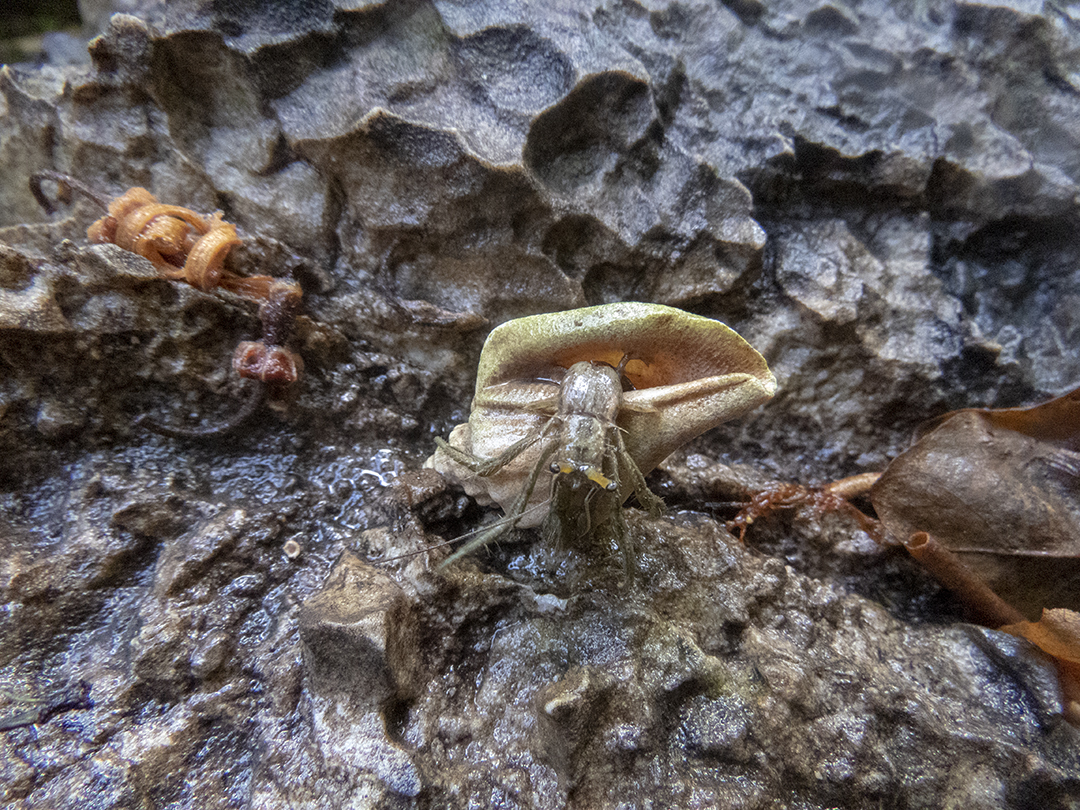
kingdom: Animalia
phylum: Arthropoda
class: Malacostraca
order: Decapoda
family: Diogenidae
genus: Clibanarius
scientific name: Clibanarius longitarsus
